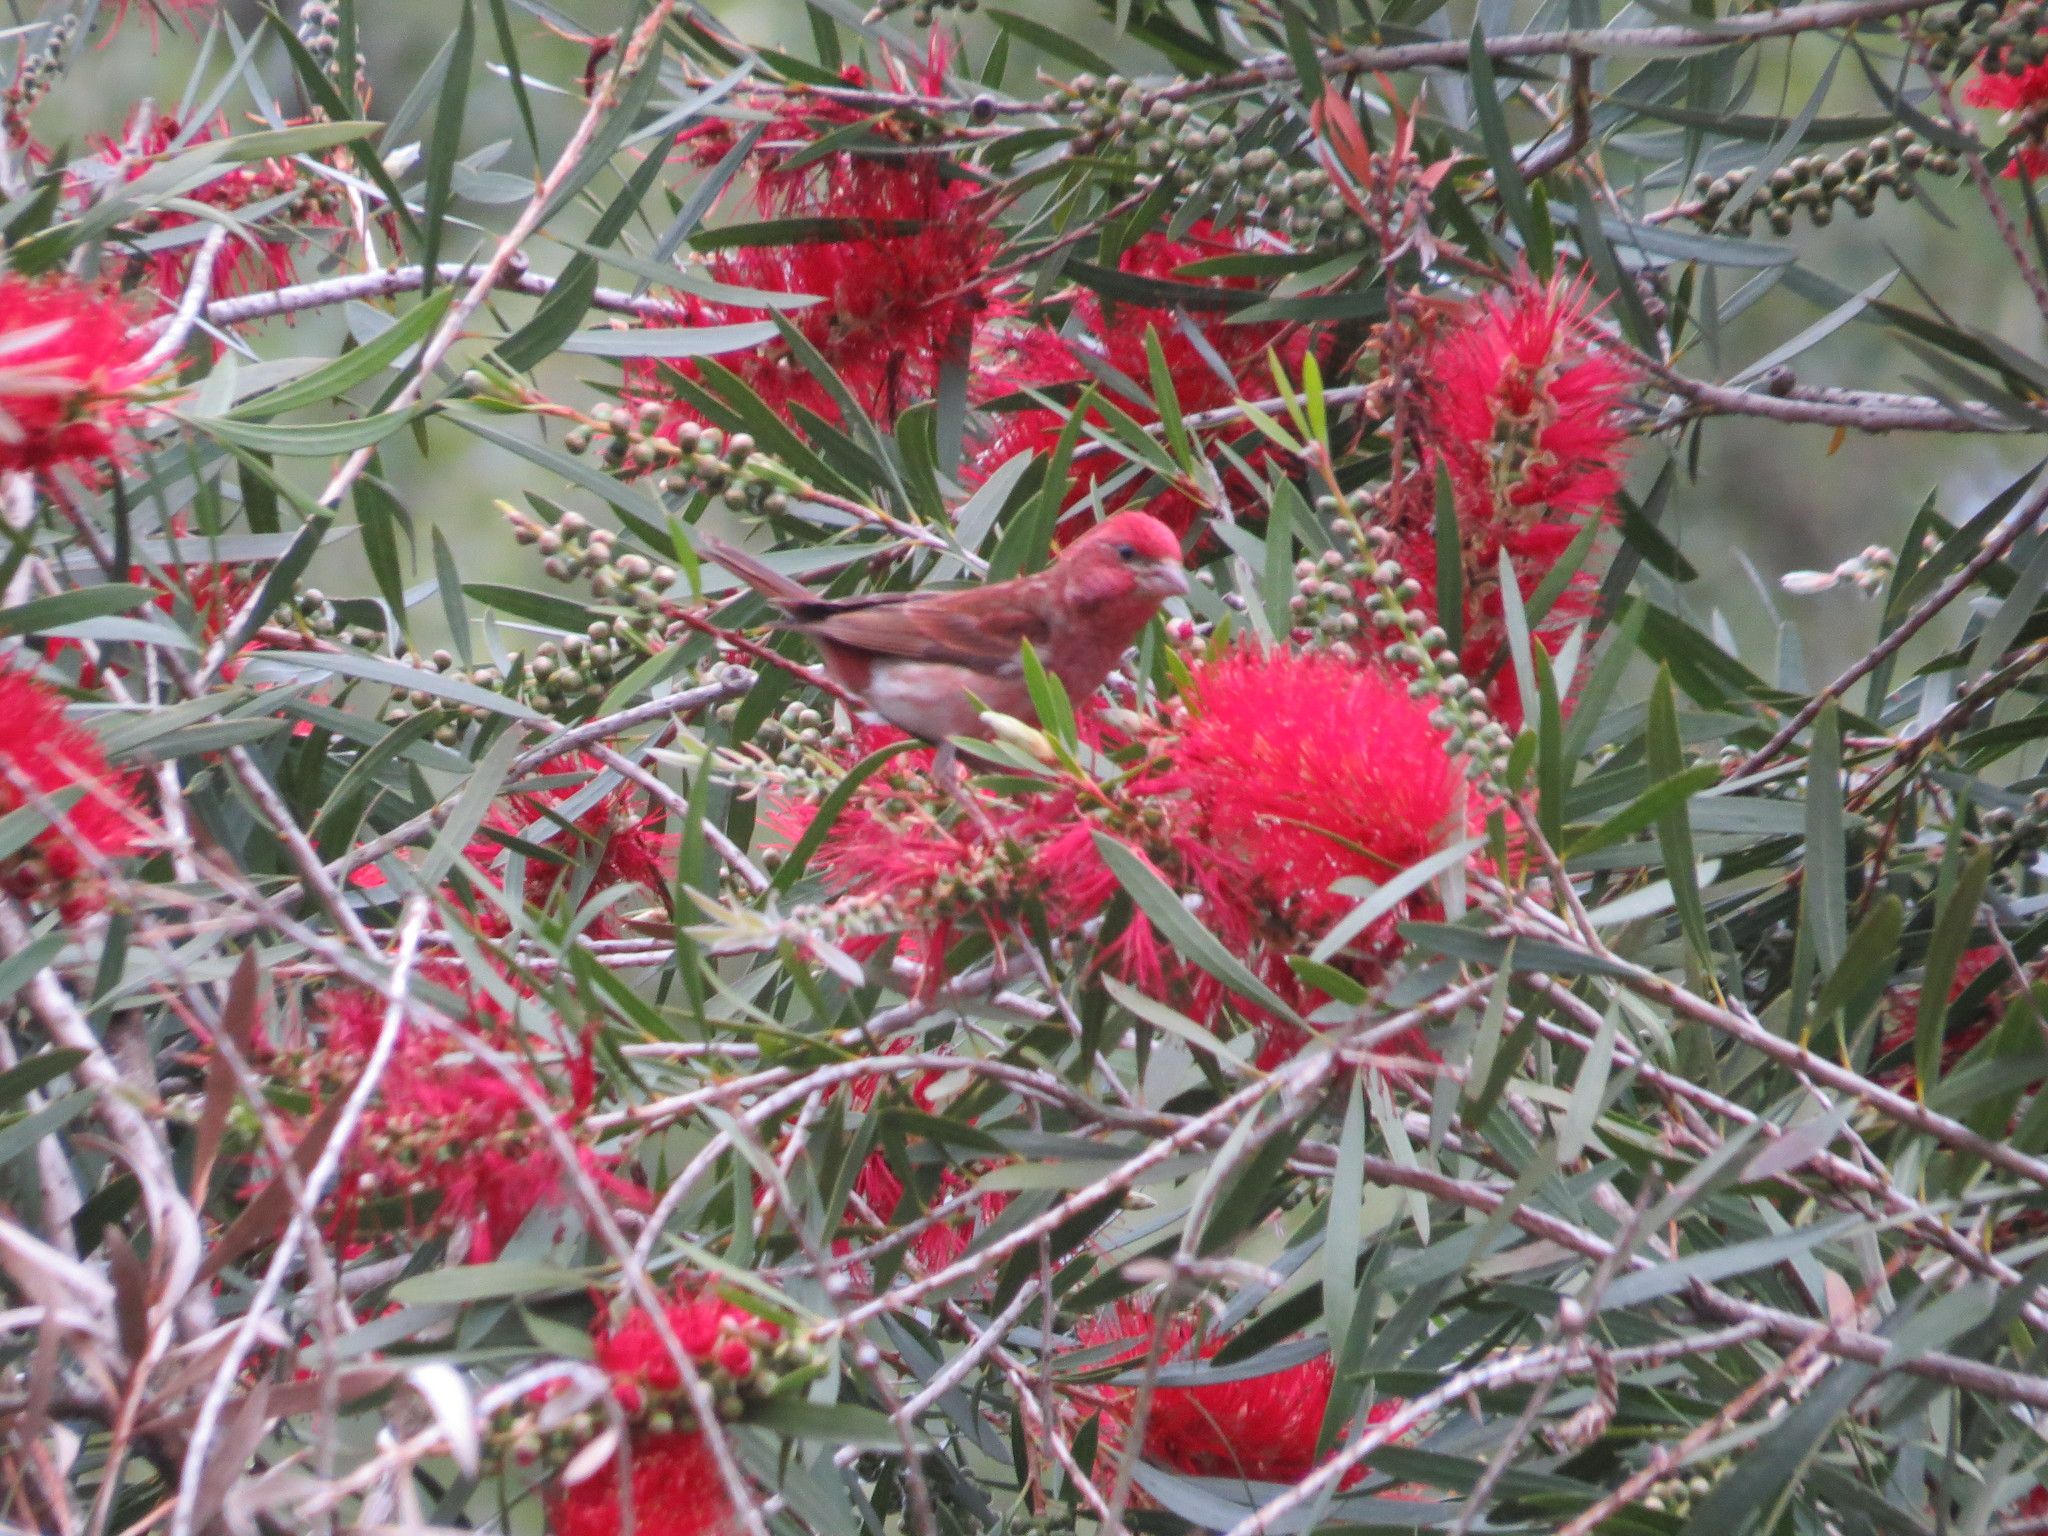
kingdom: Animalia
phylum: Chordata
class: Aves
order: Passeriformes
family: Fringillidae
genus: Haemorhous
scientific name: Haemorhous purpureus
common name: Purple finch
